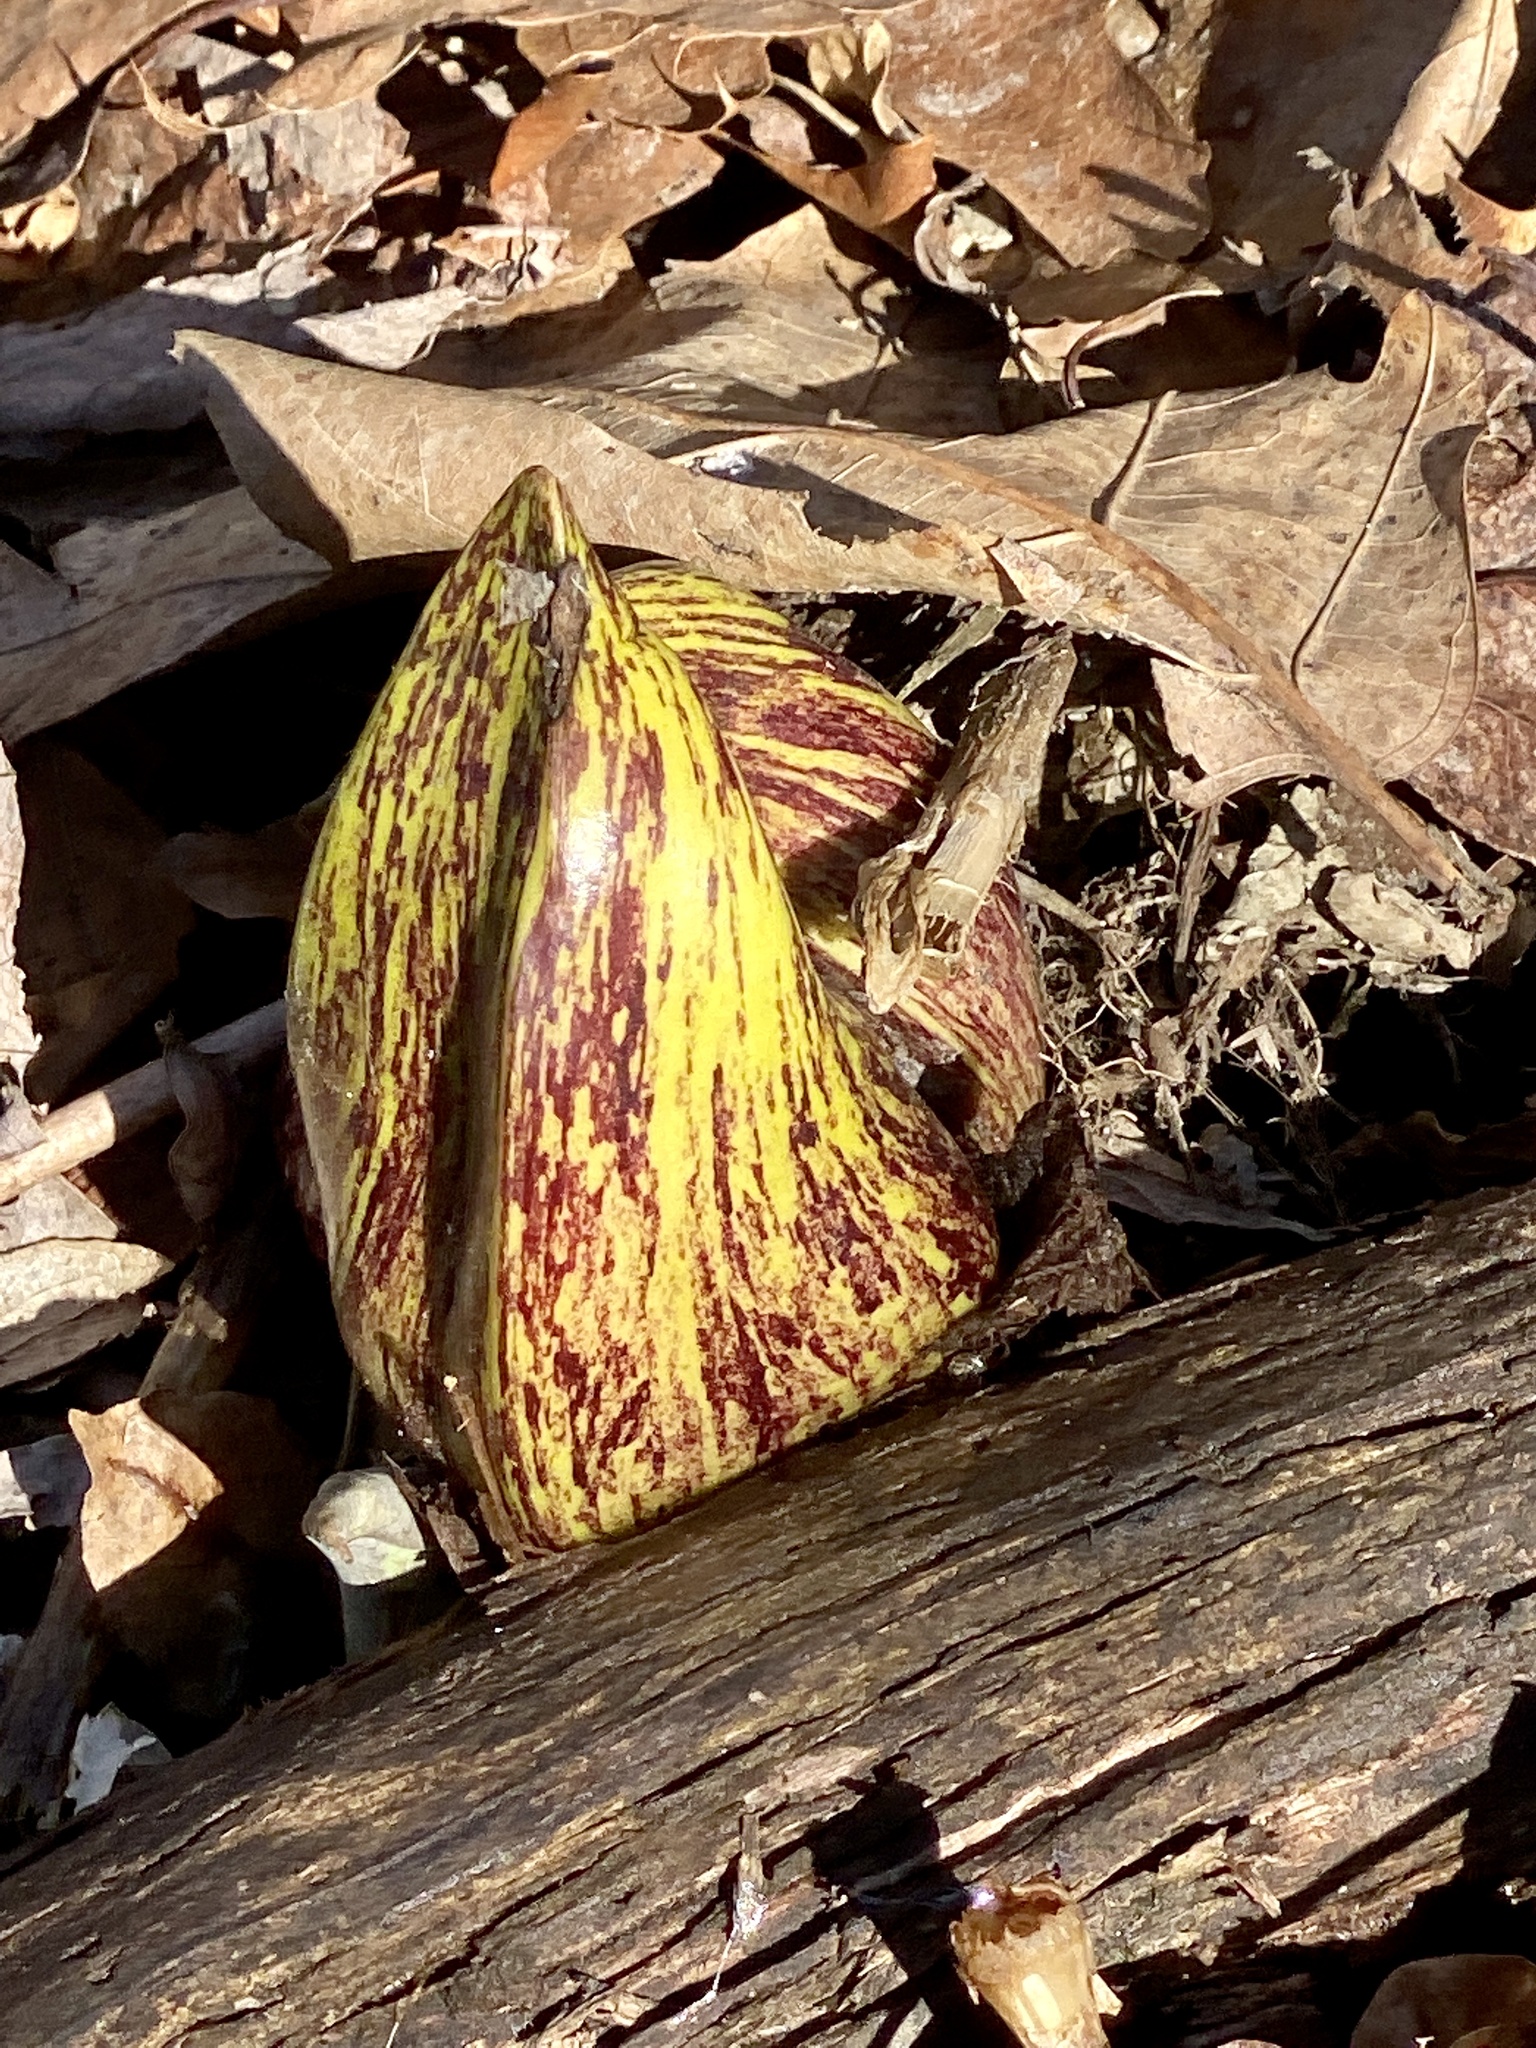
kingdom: Plantae
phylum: Tracheophyta
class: Liliopsida
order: Alismatales
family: Araceae
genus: Symplocarpus
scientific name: Symplocarpus foetidus
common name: Eastern skunk cabbage
